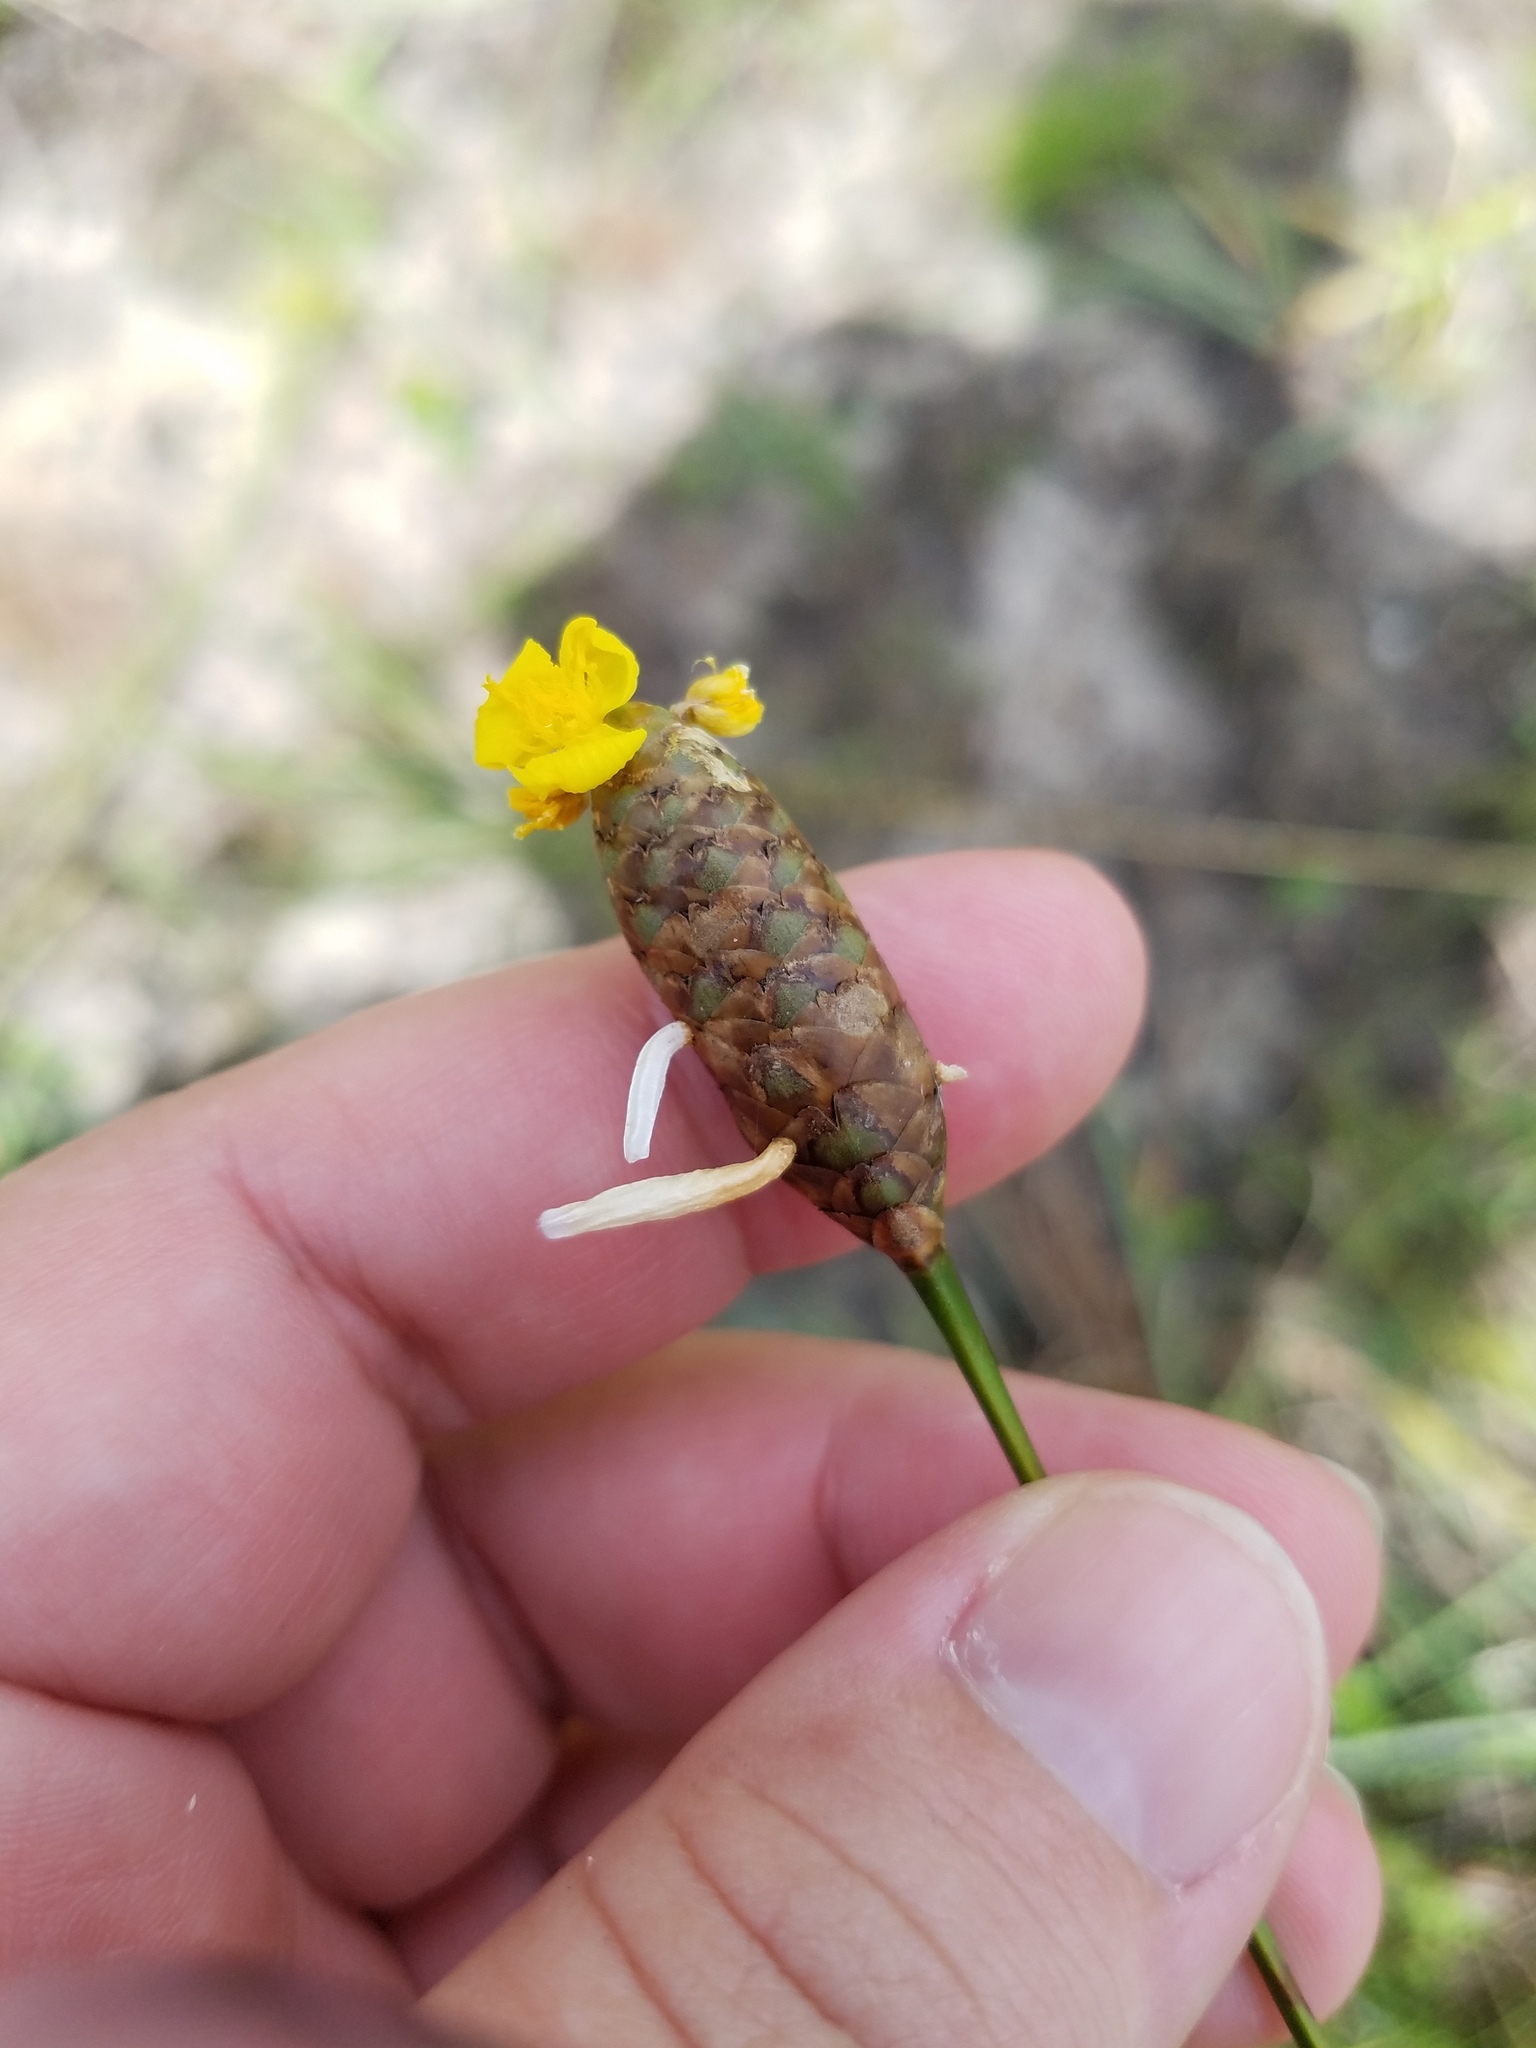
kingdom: Animalia
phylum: Arthropoda
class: Insecta
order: Lepidoptera
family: Coleophoridae
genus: Coleophora
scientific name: Coleophora xyridella
